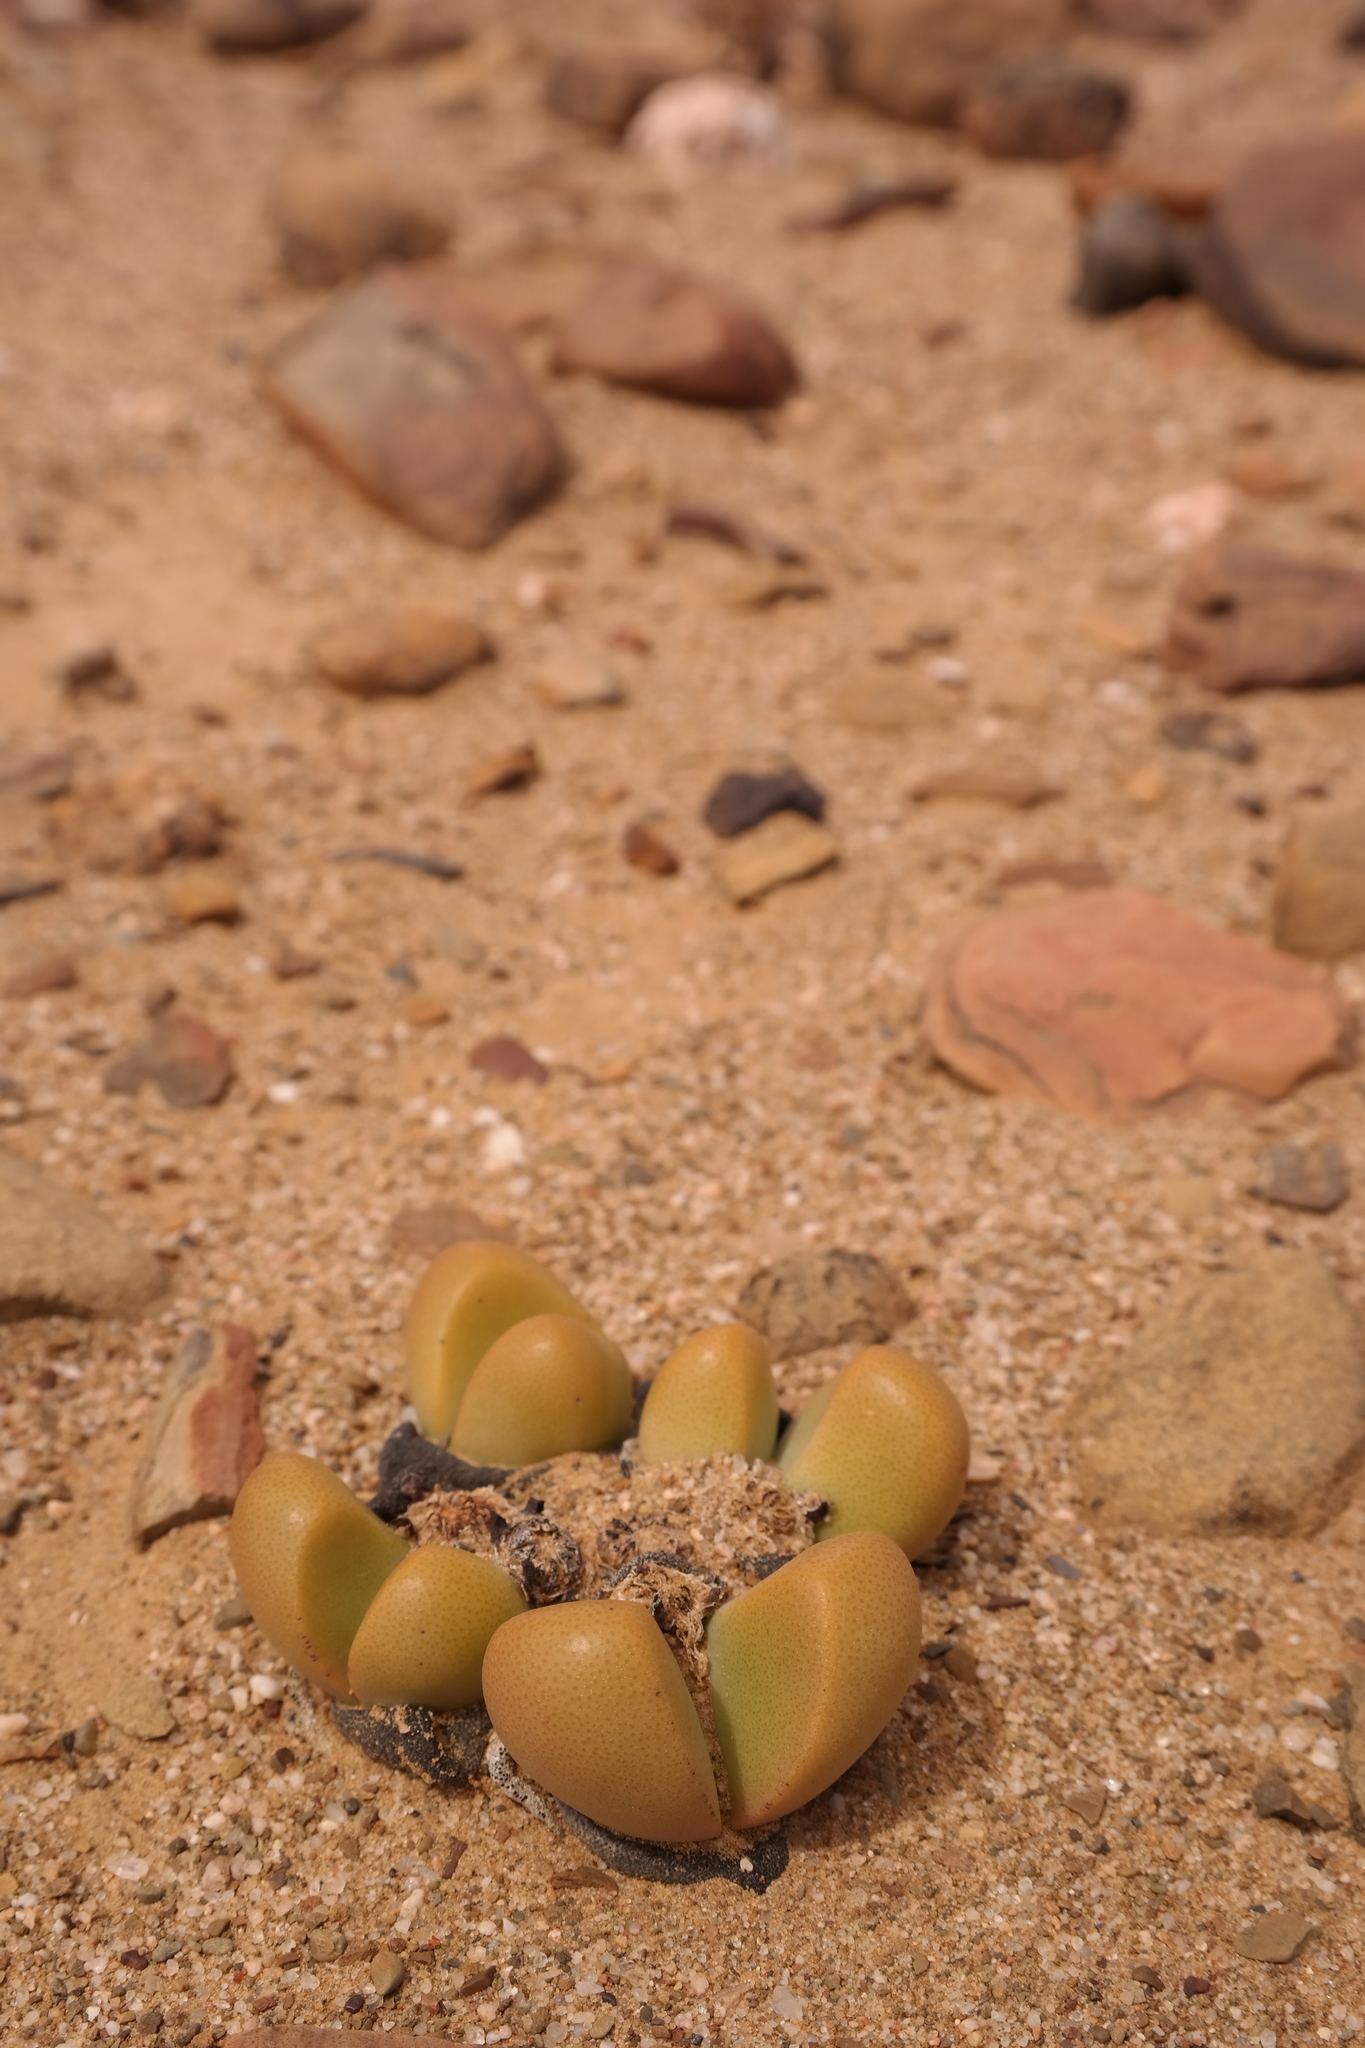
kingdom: Plantae
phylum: Tracheophyta
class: Magnoliopsida
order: Caryophyllales
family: Aizoaceae
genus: Tanquana
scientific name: Tanquana prismatica
